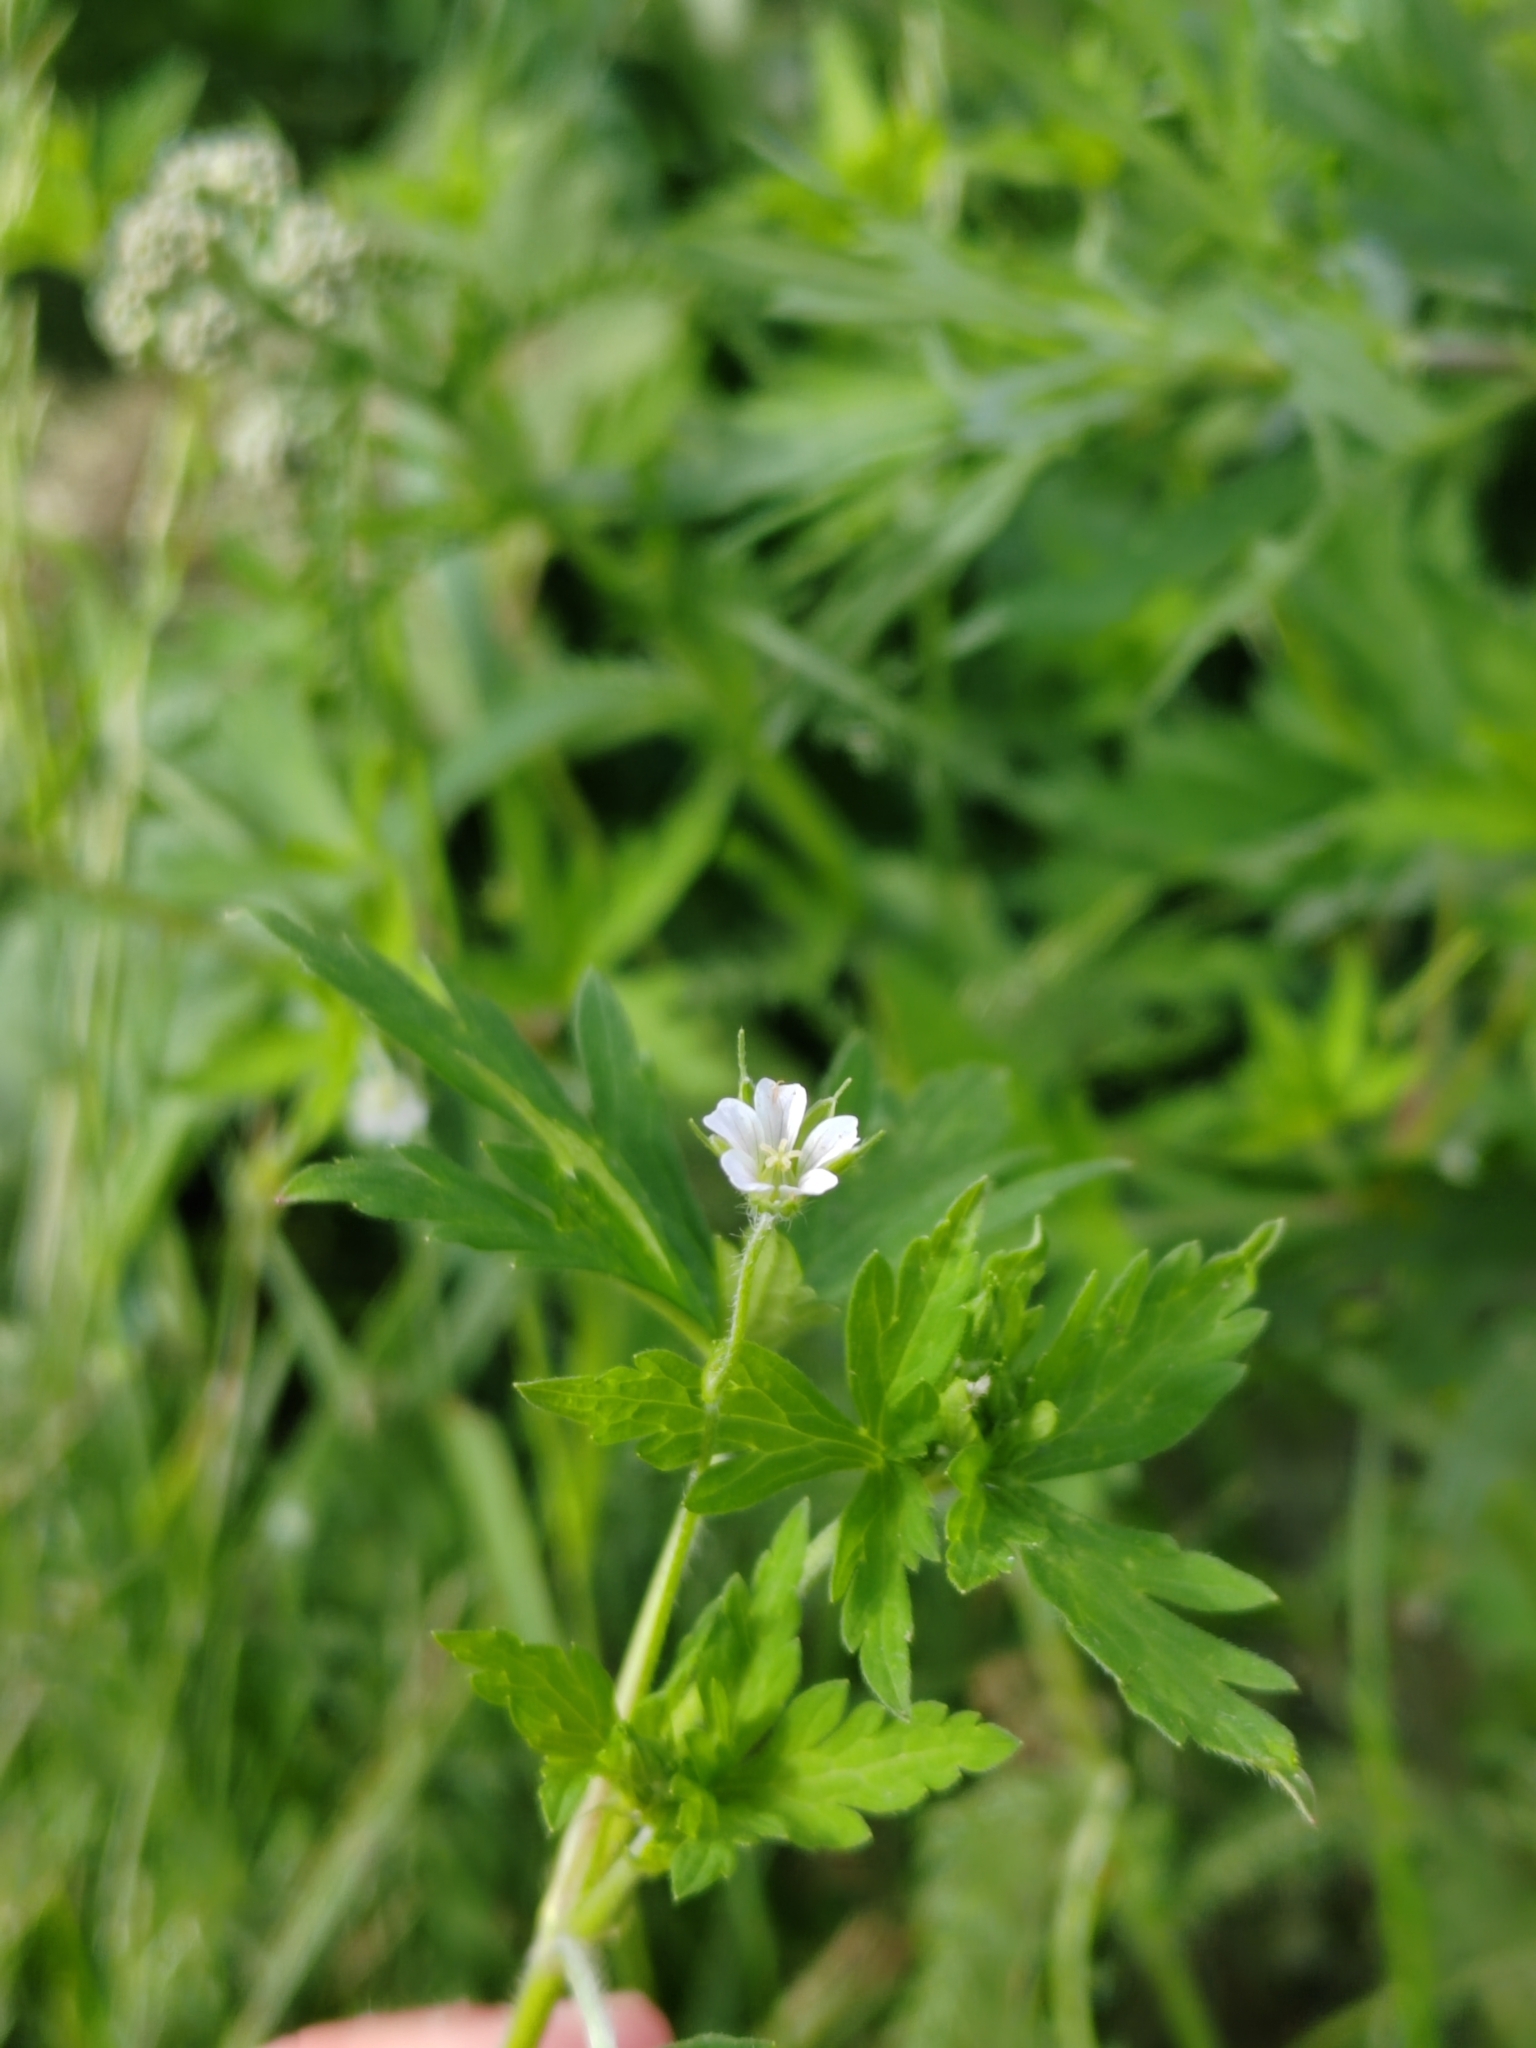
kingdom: Plantae
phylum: Tracheophyta
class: Magnoliopsida
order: Geraniales
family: Geraniaceae
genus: Geranium
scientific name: Geranium sibiricum
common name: Siberian crane's-bill
